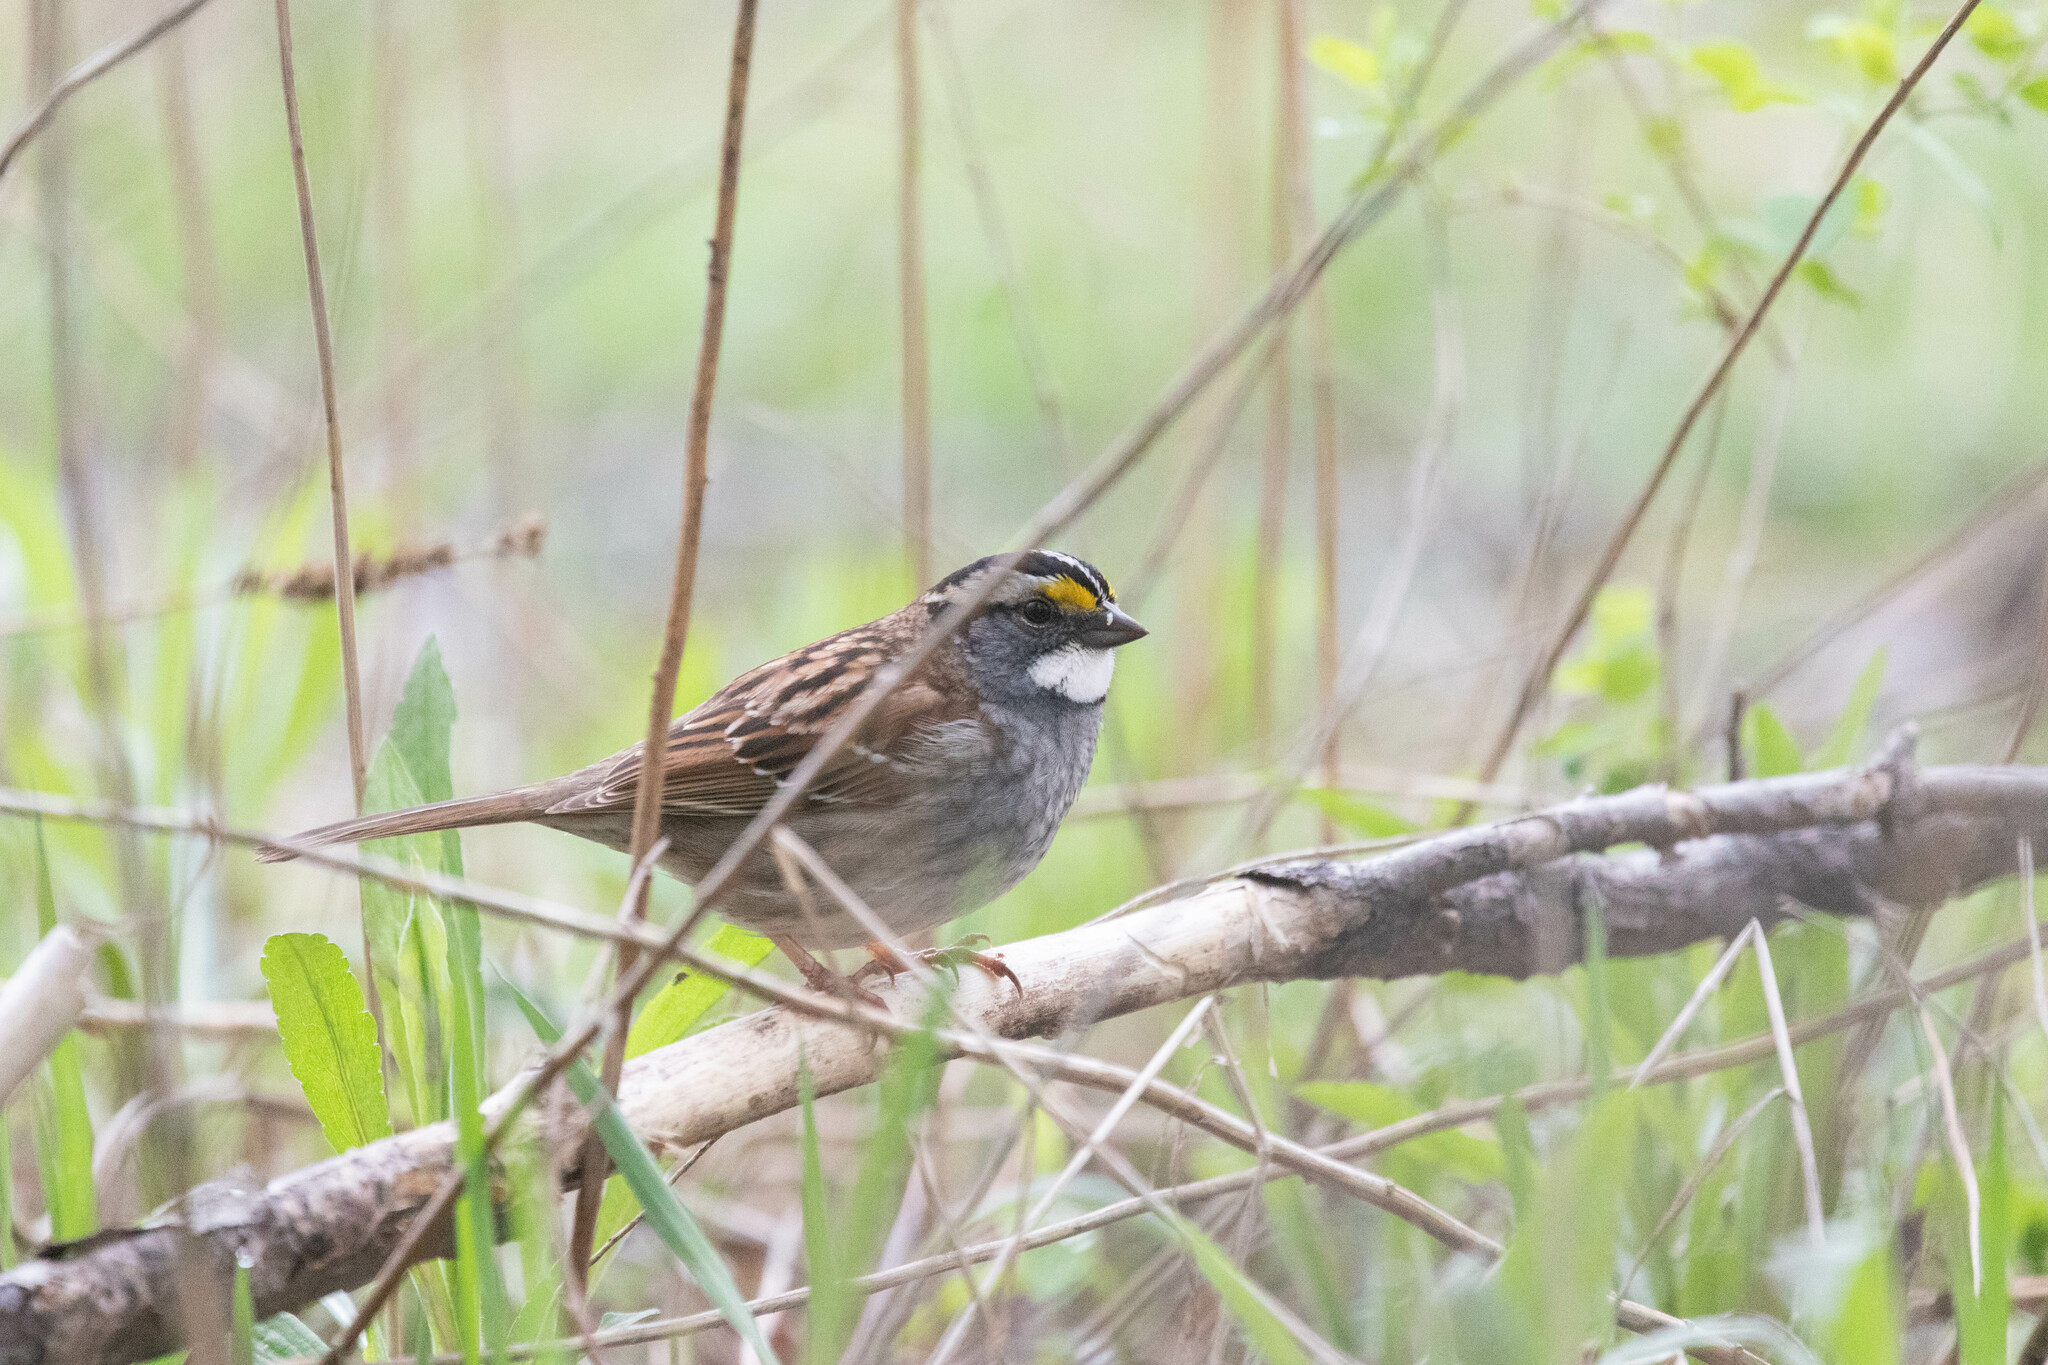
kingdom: Animalia
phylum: Chordata
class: Aves
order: Passeriformes
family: Passerellidae
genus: Zonotrichia
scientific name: Zonotrichia albicollis
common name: White-throated sparrow
